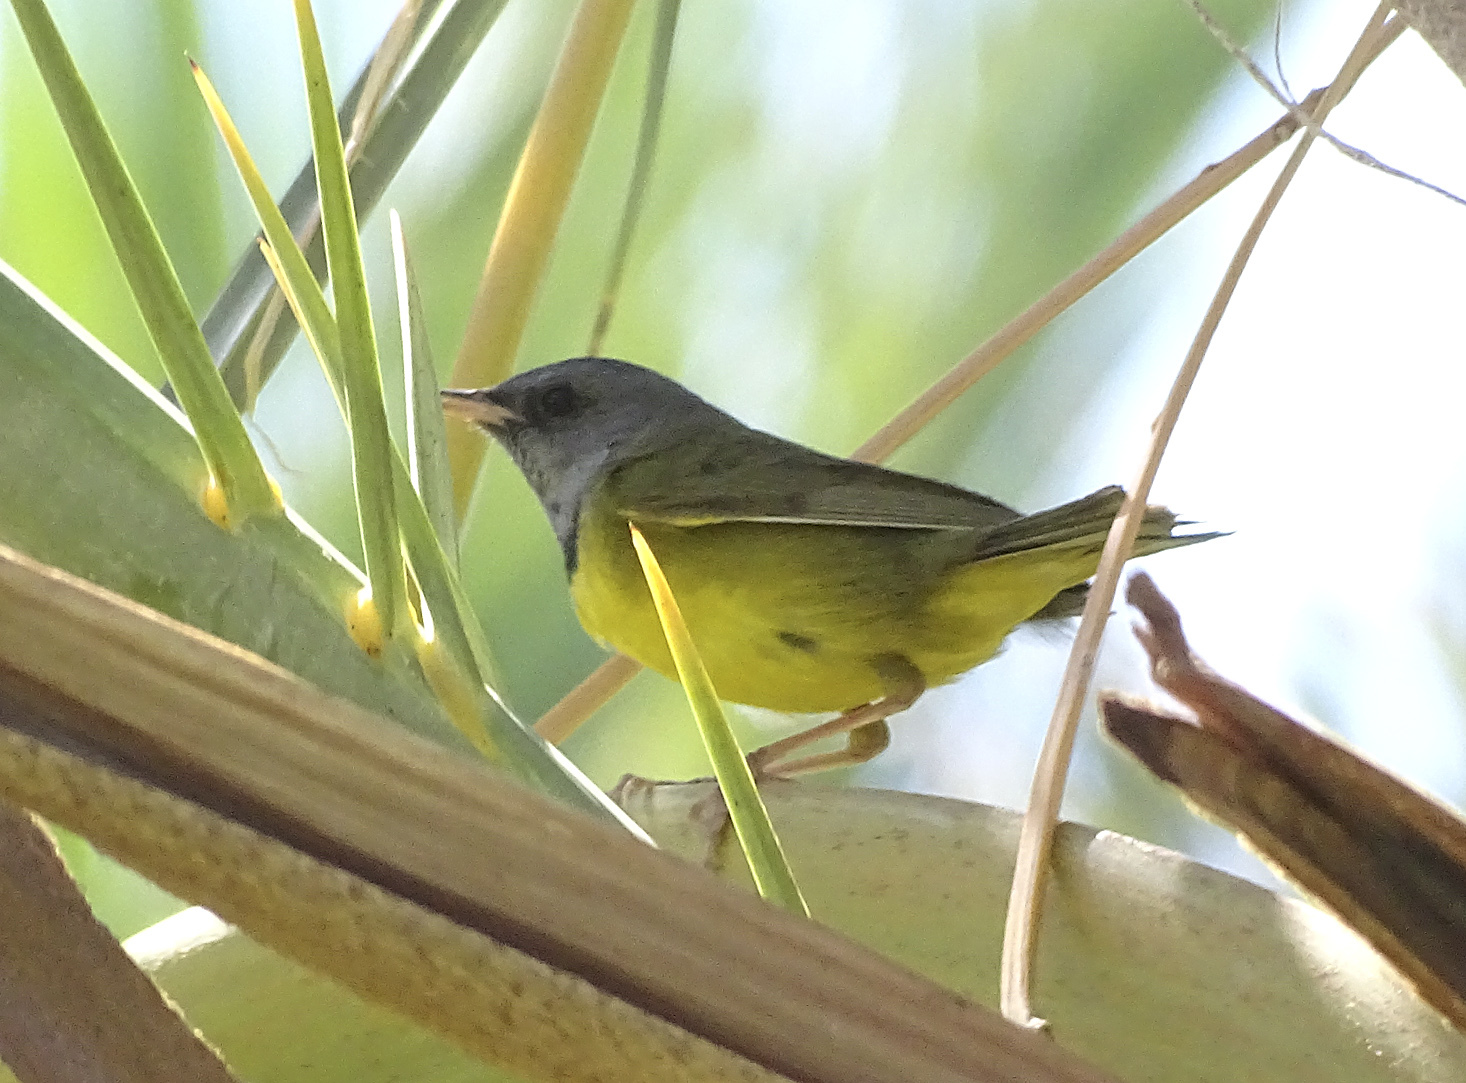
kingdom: Animalia
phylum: Chordata
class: Aves
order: Passeriformes
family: Parulidae
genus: Geothlypis
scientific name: Geothlypis philadelphia
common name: Mourning warbler
